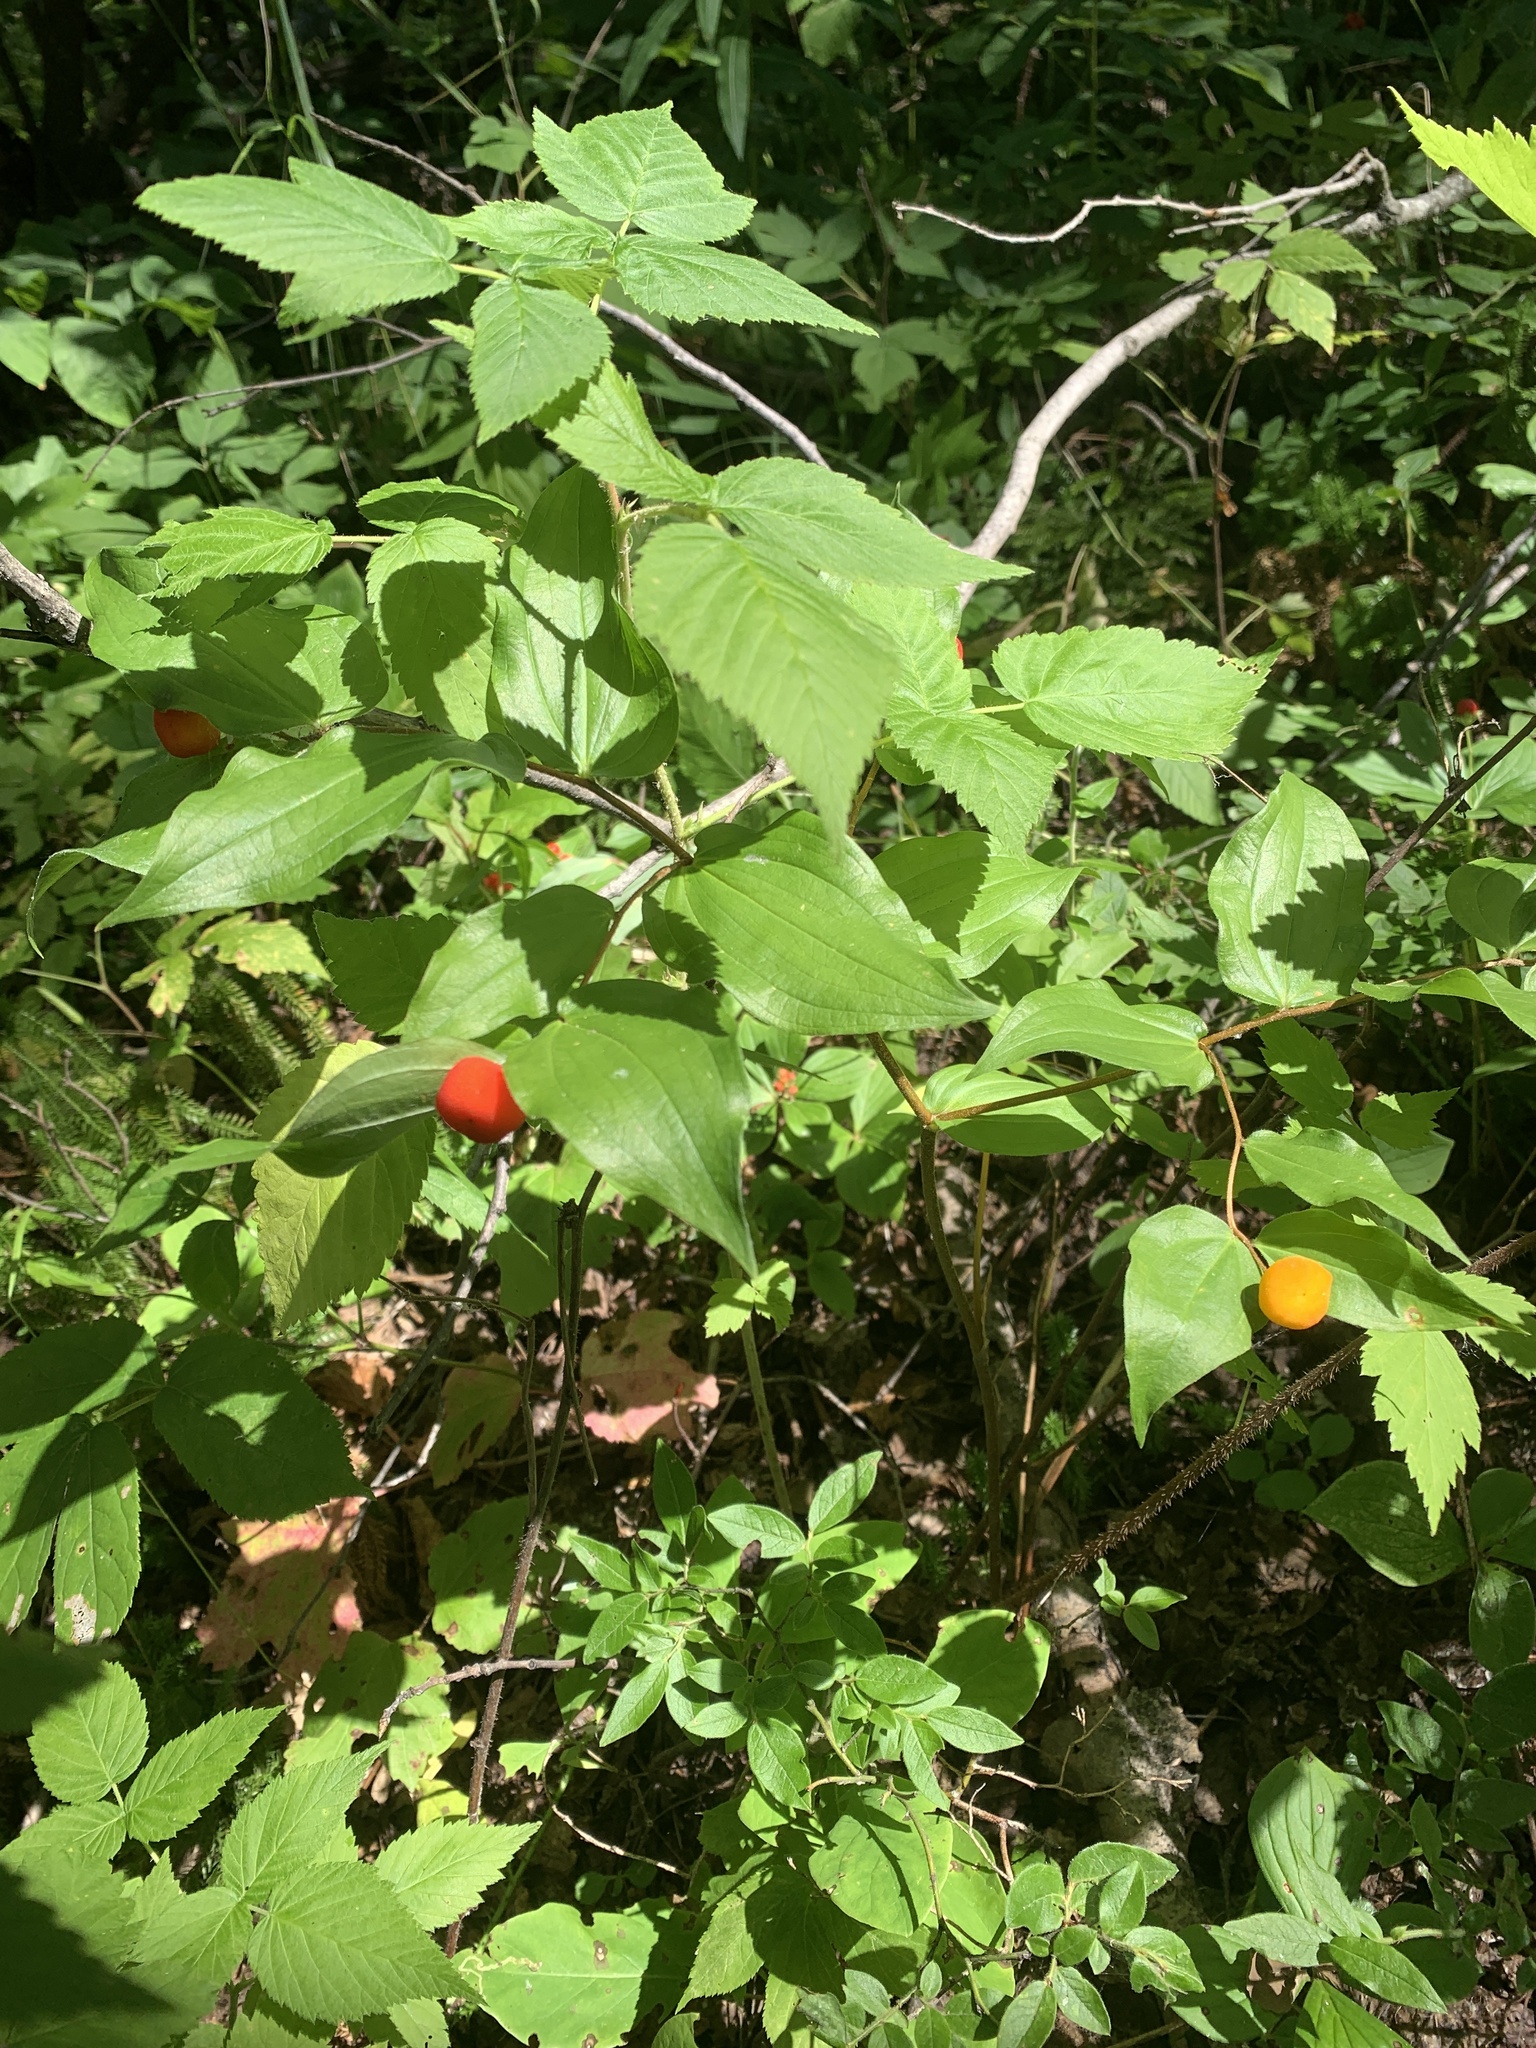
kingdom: Plantae
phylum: Tracheophyta
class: Liliopsida
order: Liliales
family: Liliaceae
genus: Prosartes
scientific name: Prosartes trachycarpa
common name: Rough-fruit fairy-bells
